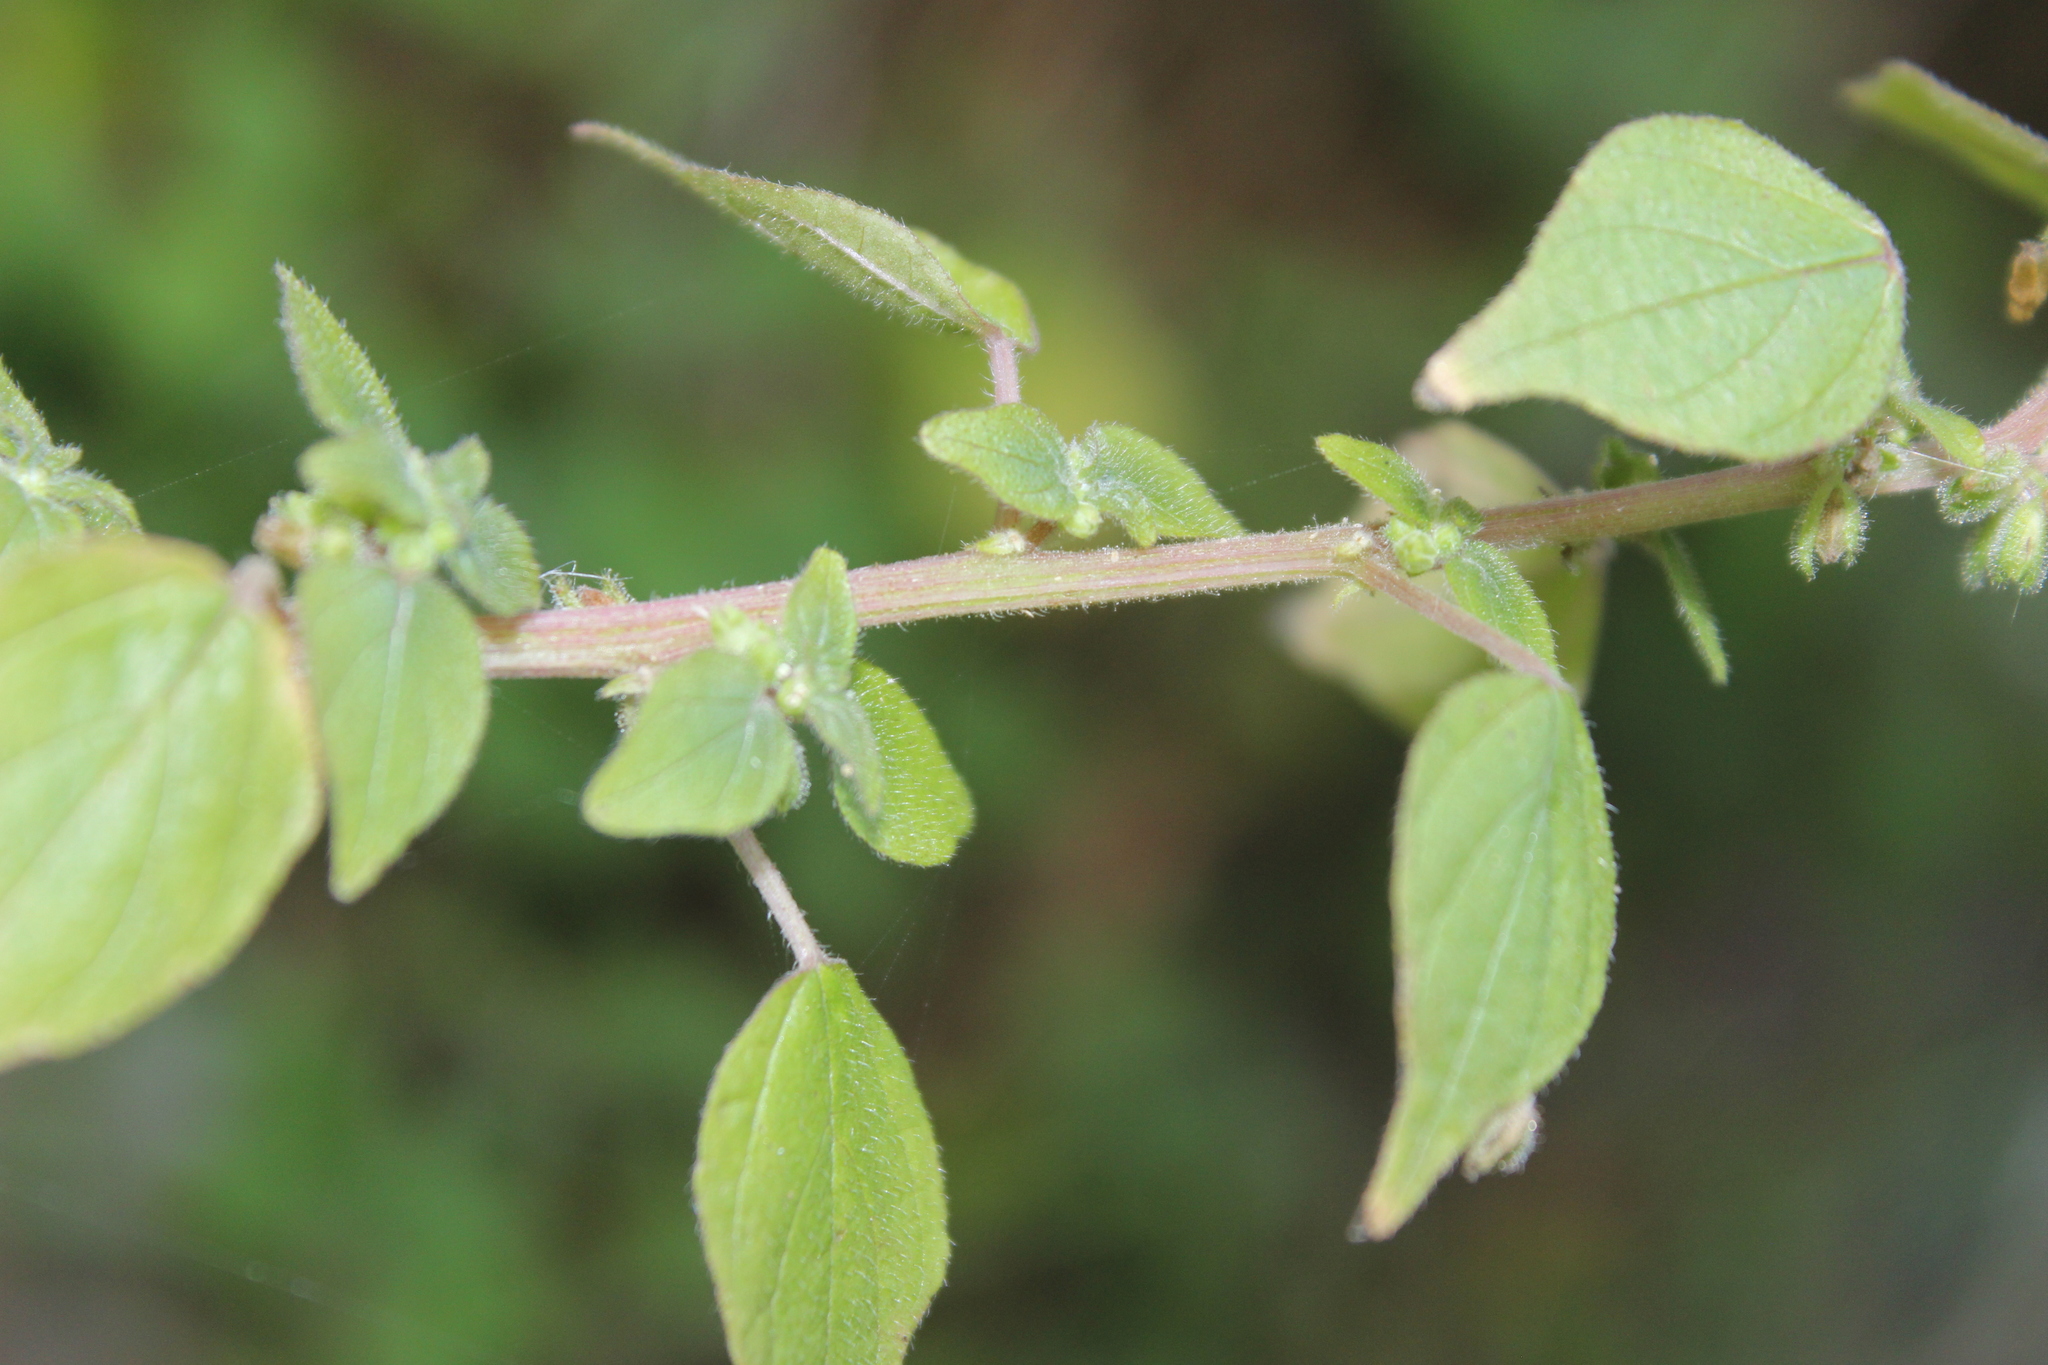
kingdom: Plantae
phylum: Tracheophyta
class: Magnoliopsida
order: Rosales
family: Urticaceae
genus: Parietaria
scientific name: Parietaria debilis
